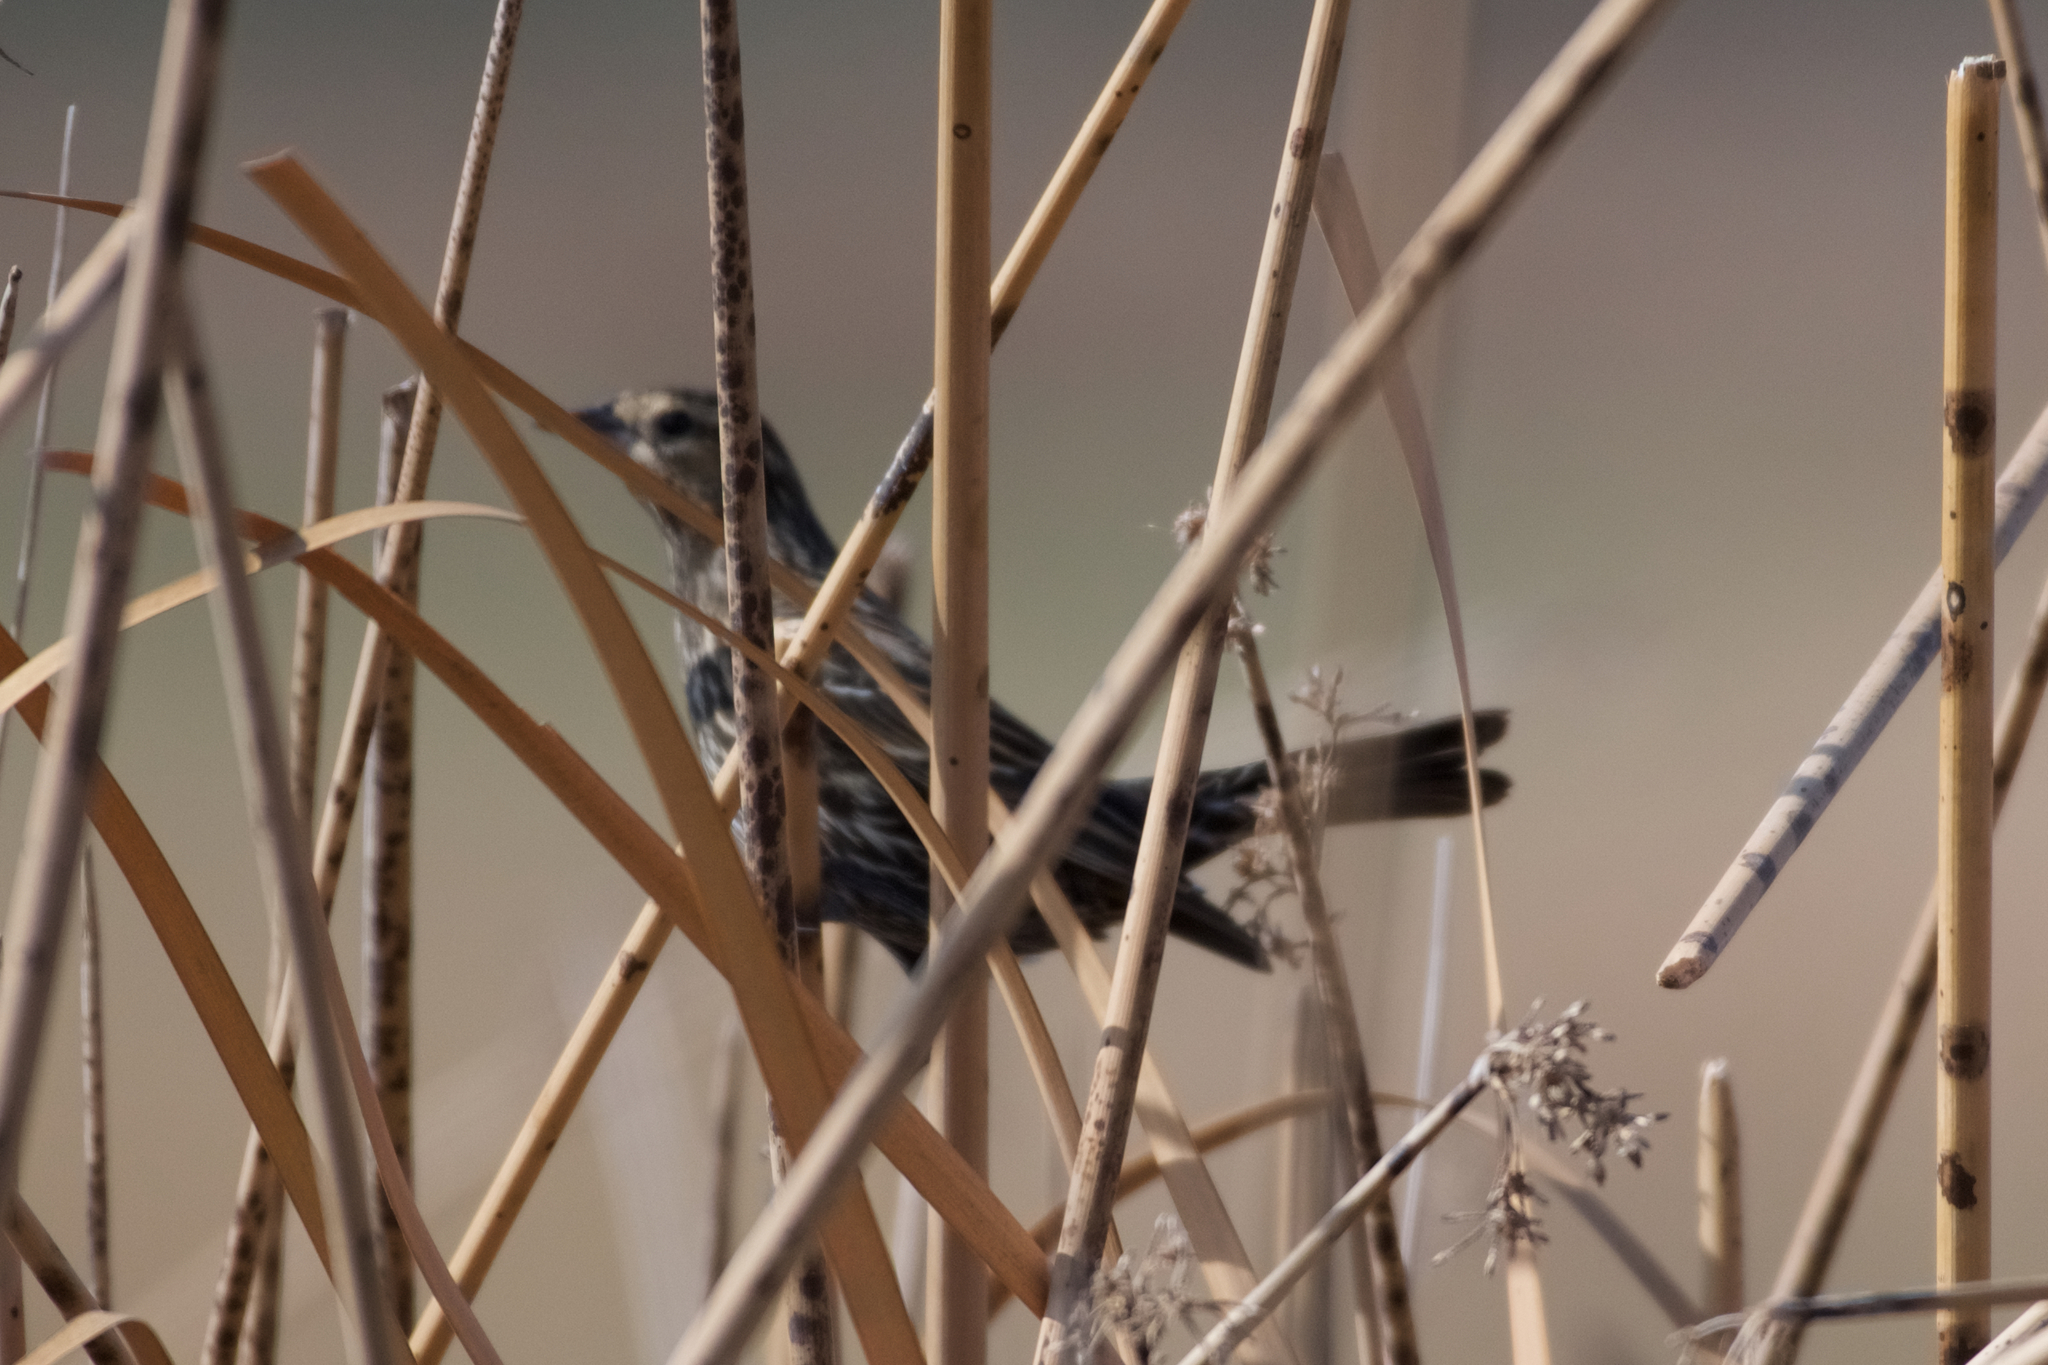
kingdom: Animalia
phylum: Chordata
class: Aves
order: Passeriformes
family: Icteridae
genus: Agelaius
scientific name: Agelaius phoeniceus
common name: Red-winged blackbird
